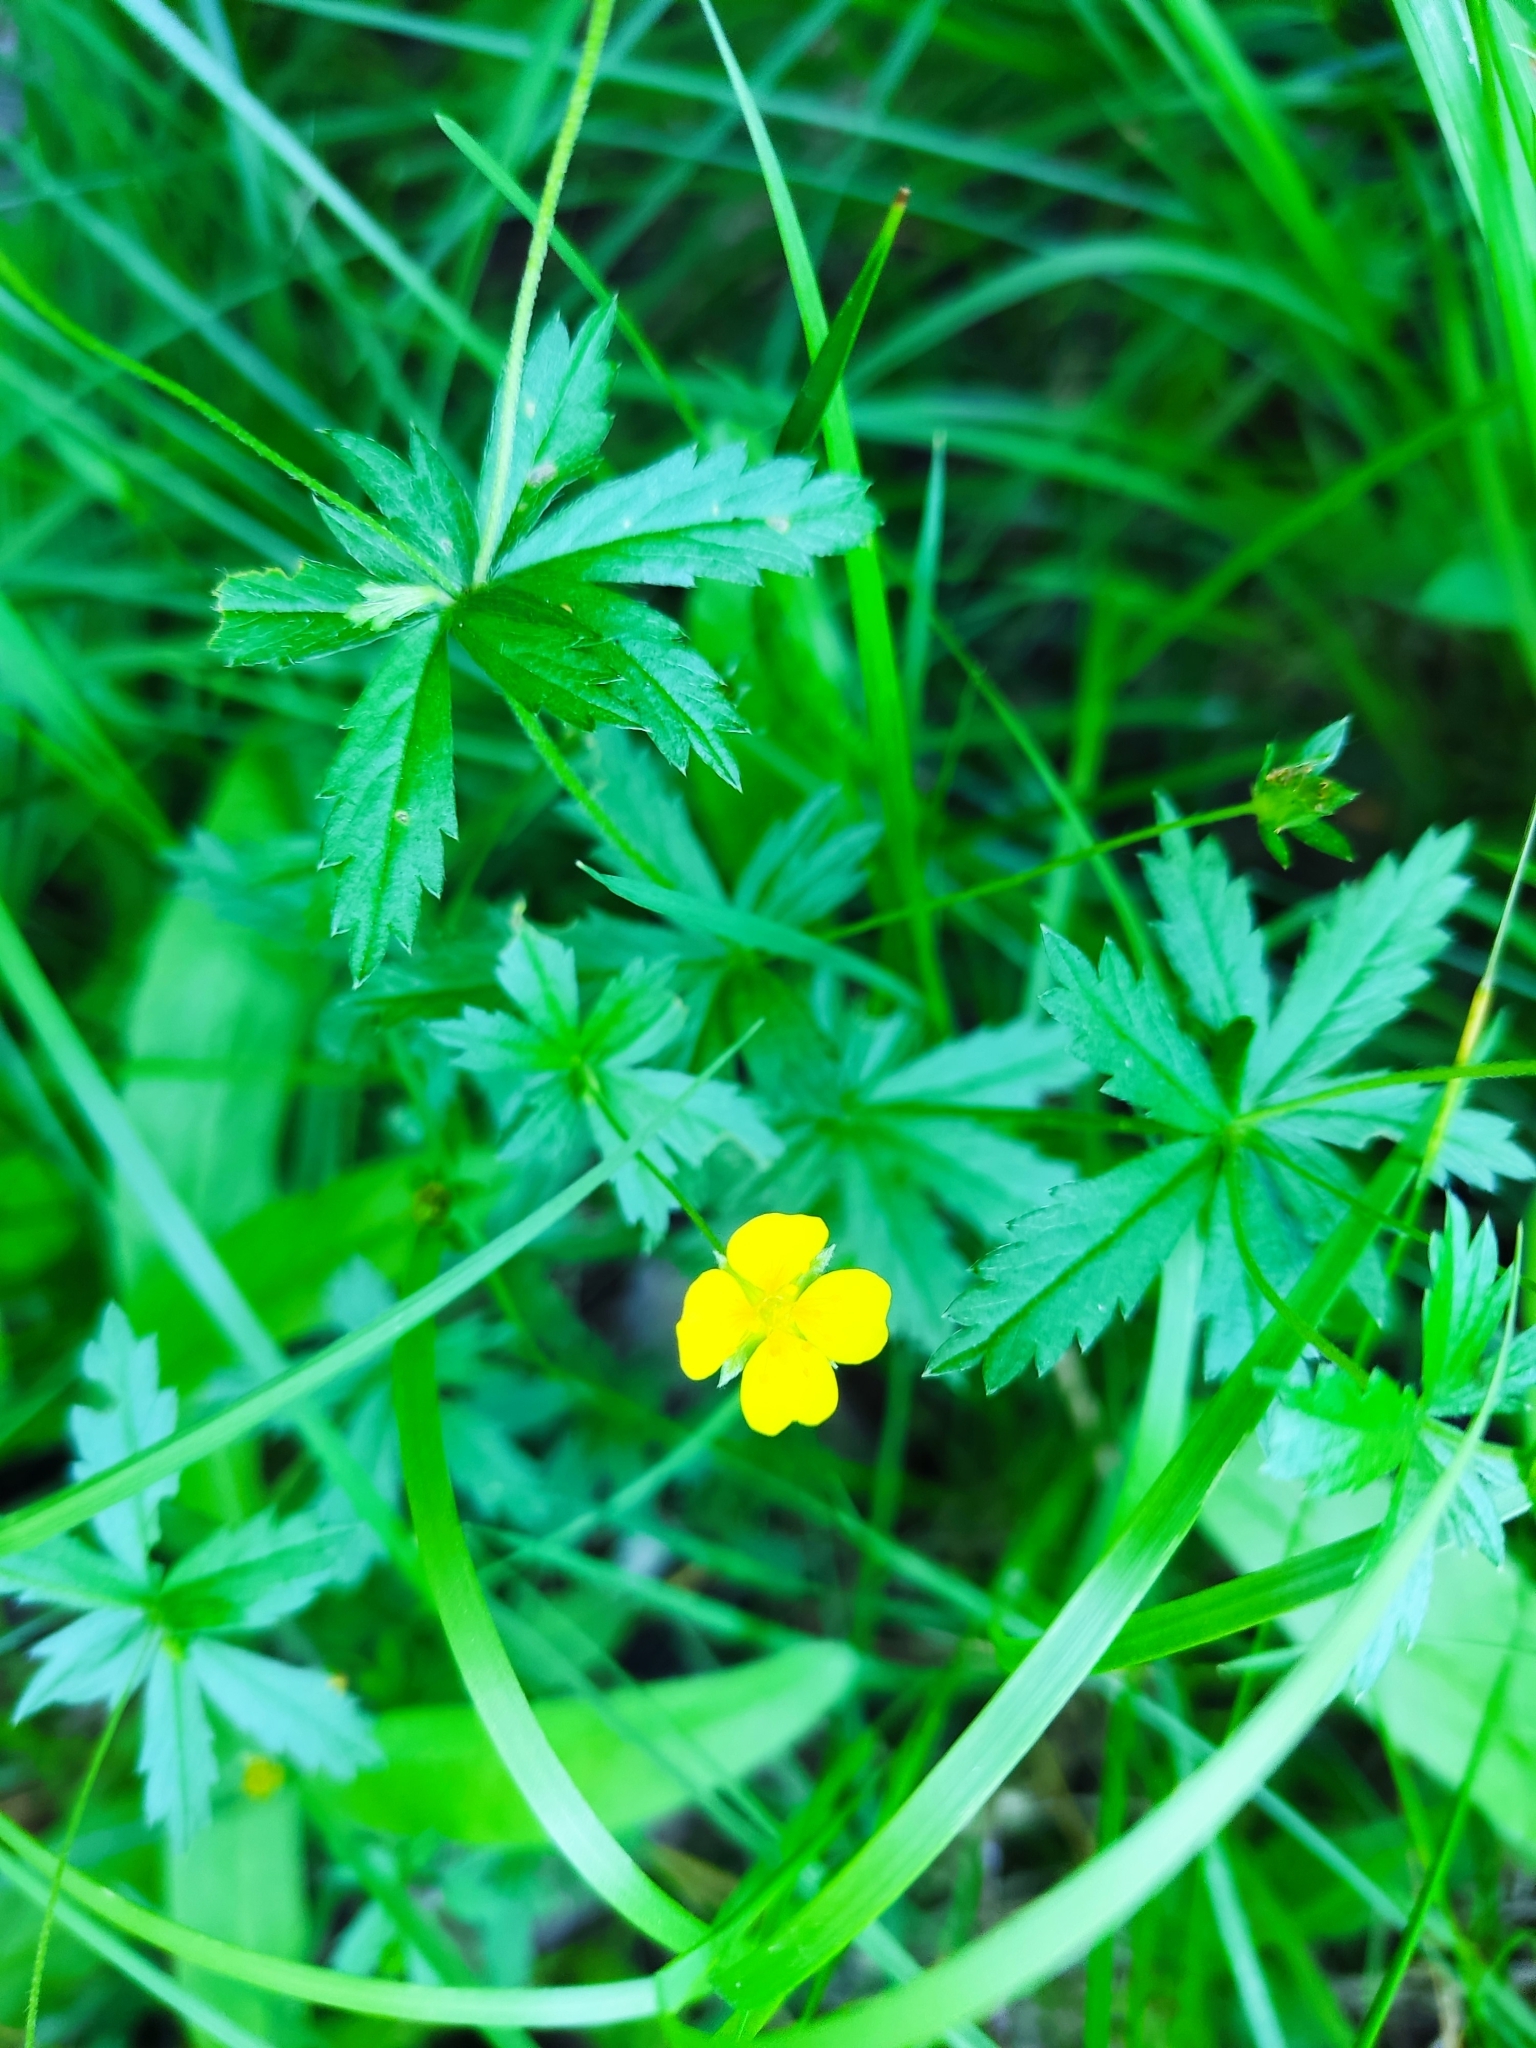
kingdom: Plantae
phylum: Tracheophyta
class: Magnoliopsida
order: Rosales
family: Rosaceae
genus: Potentilla
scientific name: Potentilla erecta
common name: Tormentil
